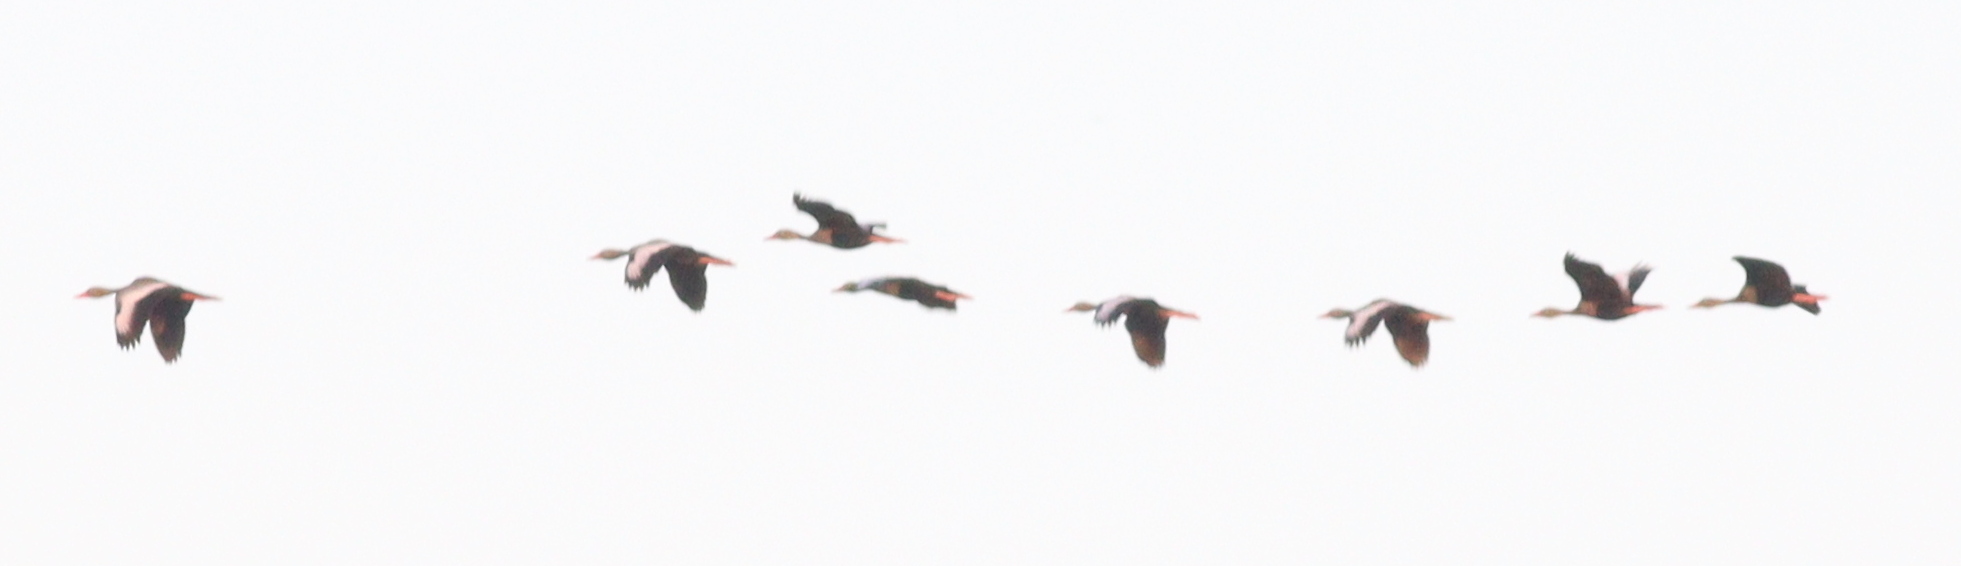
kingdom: Animalia
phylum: Chordata
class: Aves
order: Anseriformes
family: Anatidae
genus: Dendrocygna
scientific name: Dendrocygna autumnalis
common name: Black-bellied whistling duck
